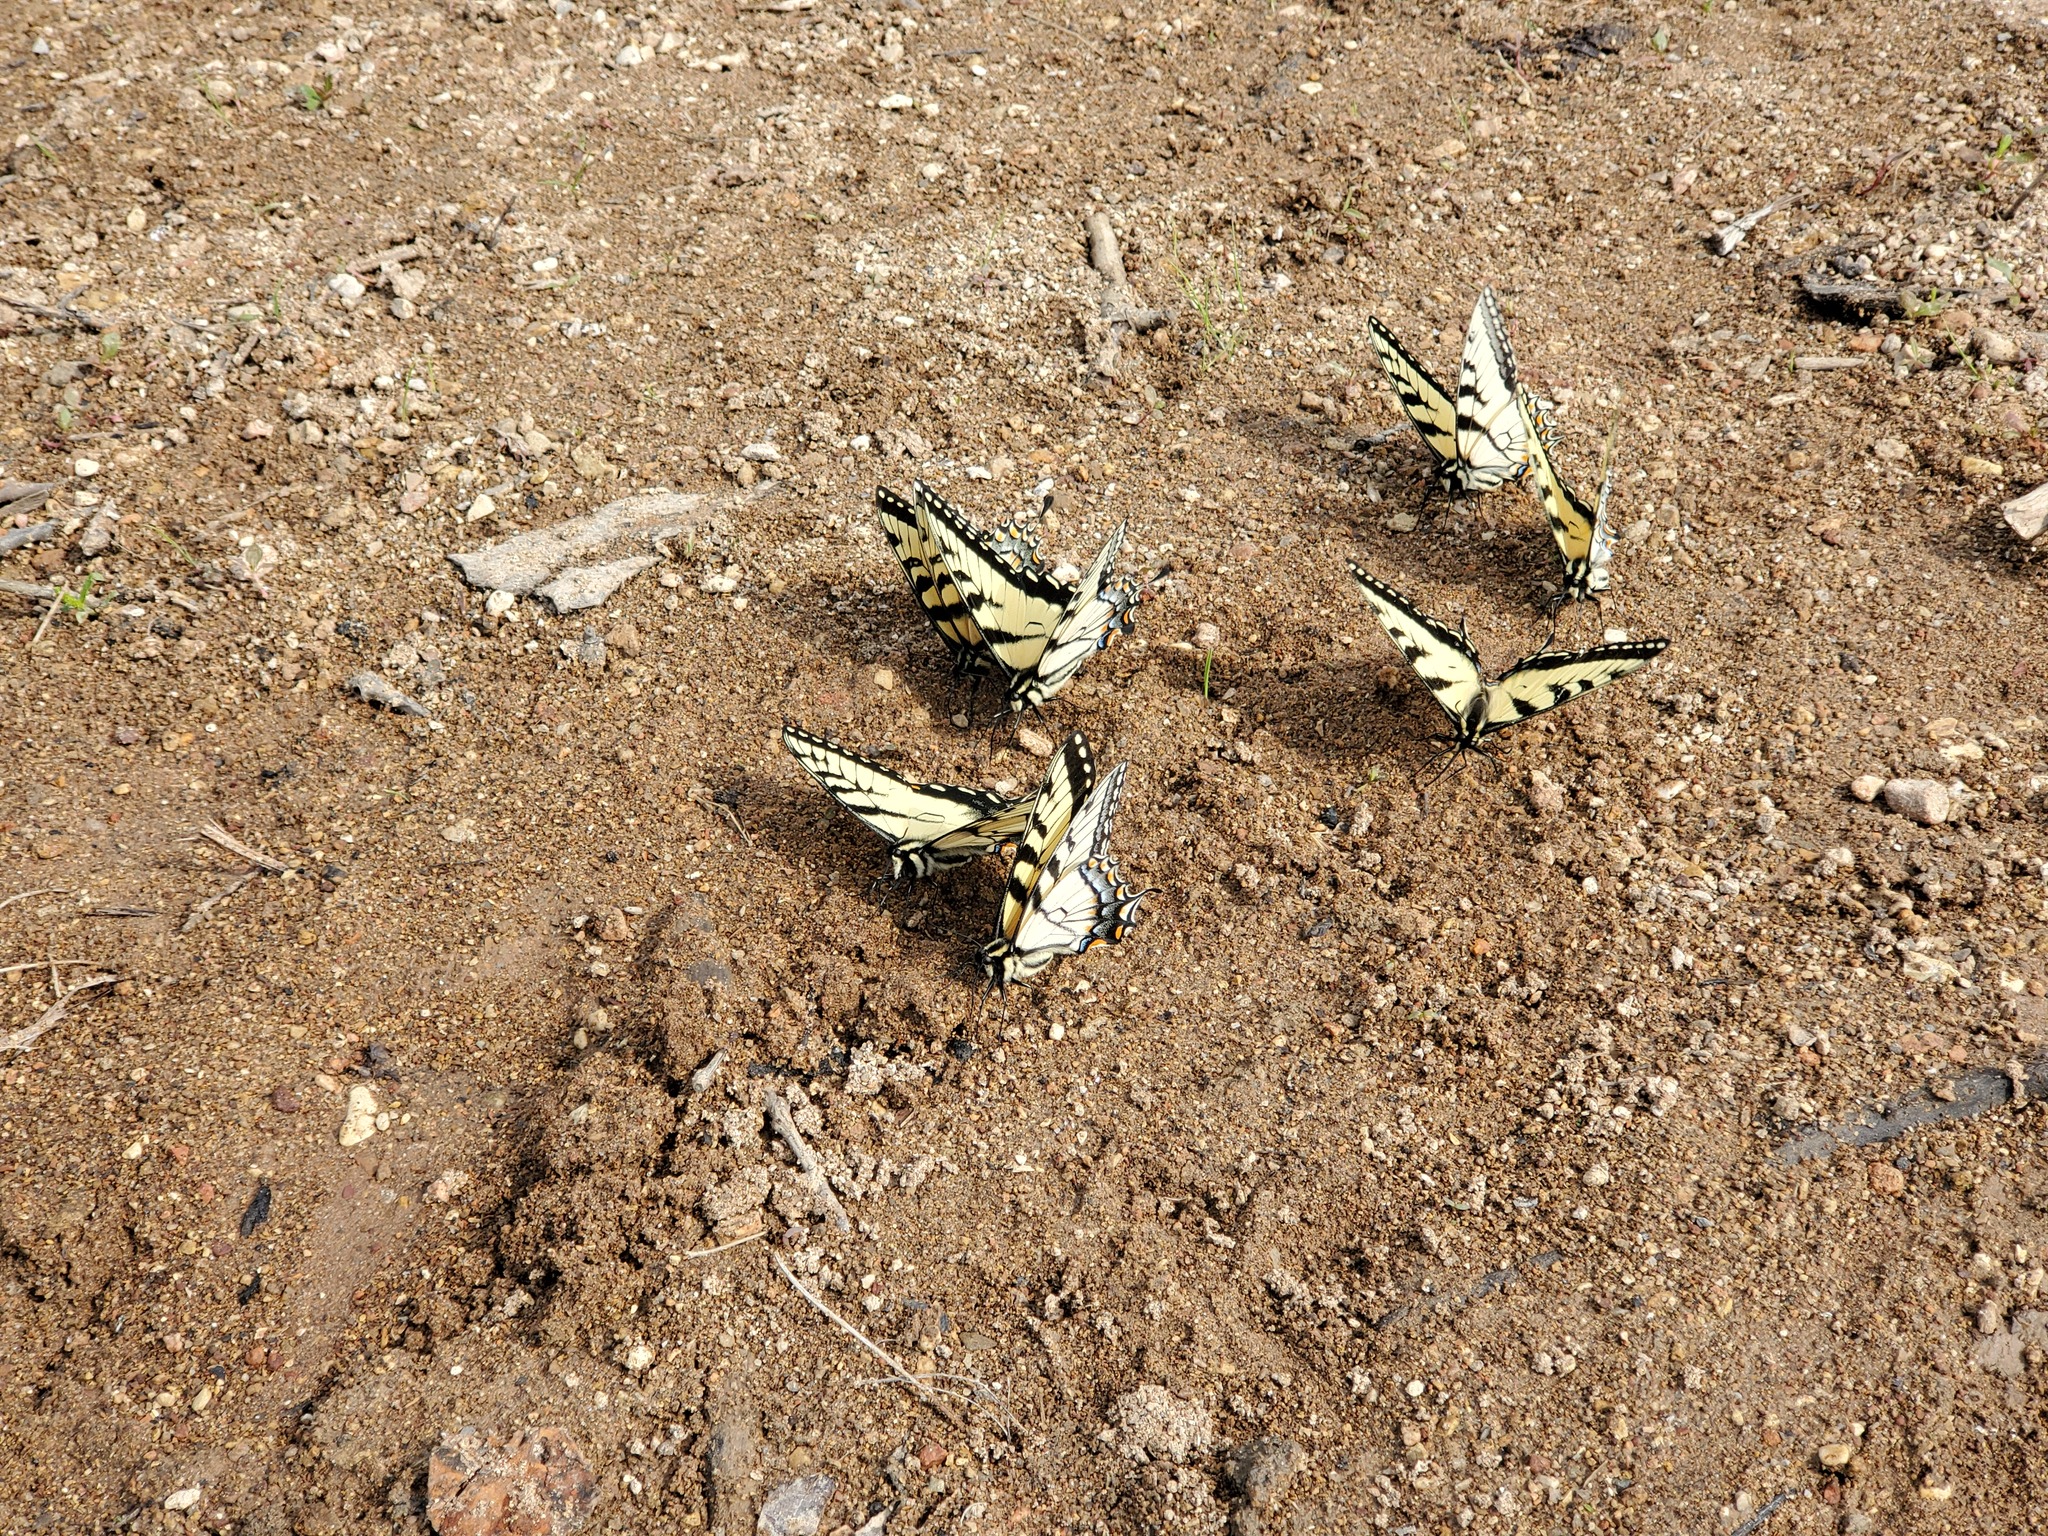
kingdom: Animalia
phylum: Arthropoda
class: Insecta
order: Lepidoptera
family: Papilionidae
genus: Papilio
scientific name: Papilio glaucus
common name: Tiger swallowtail
